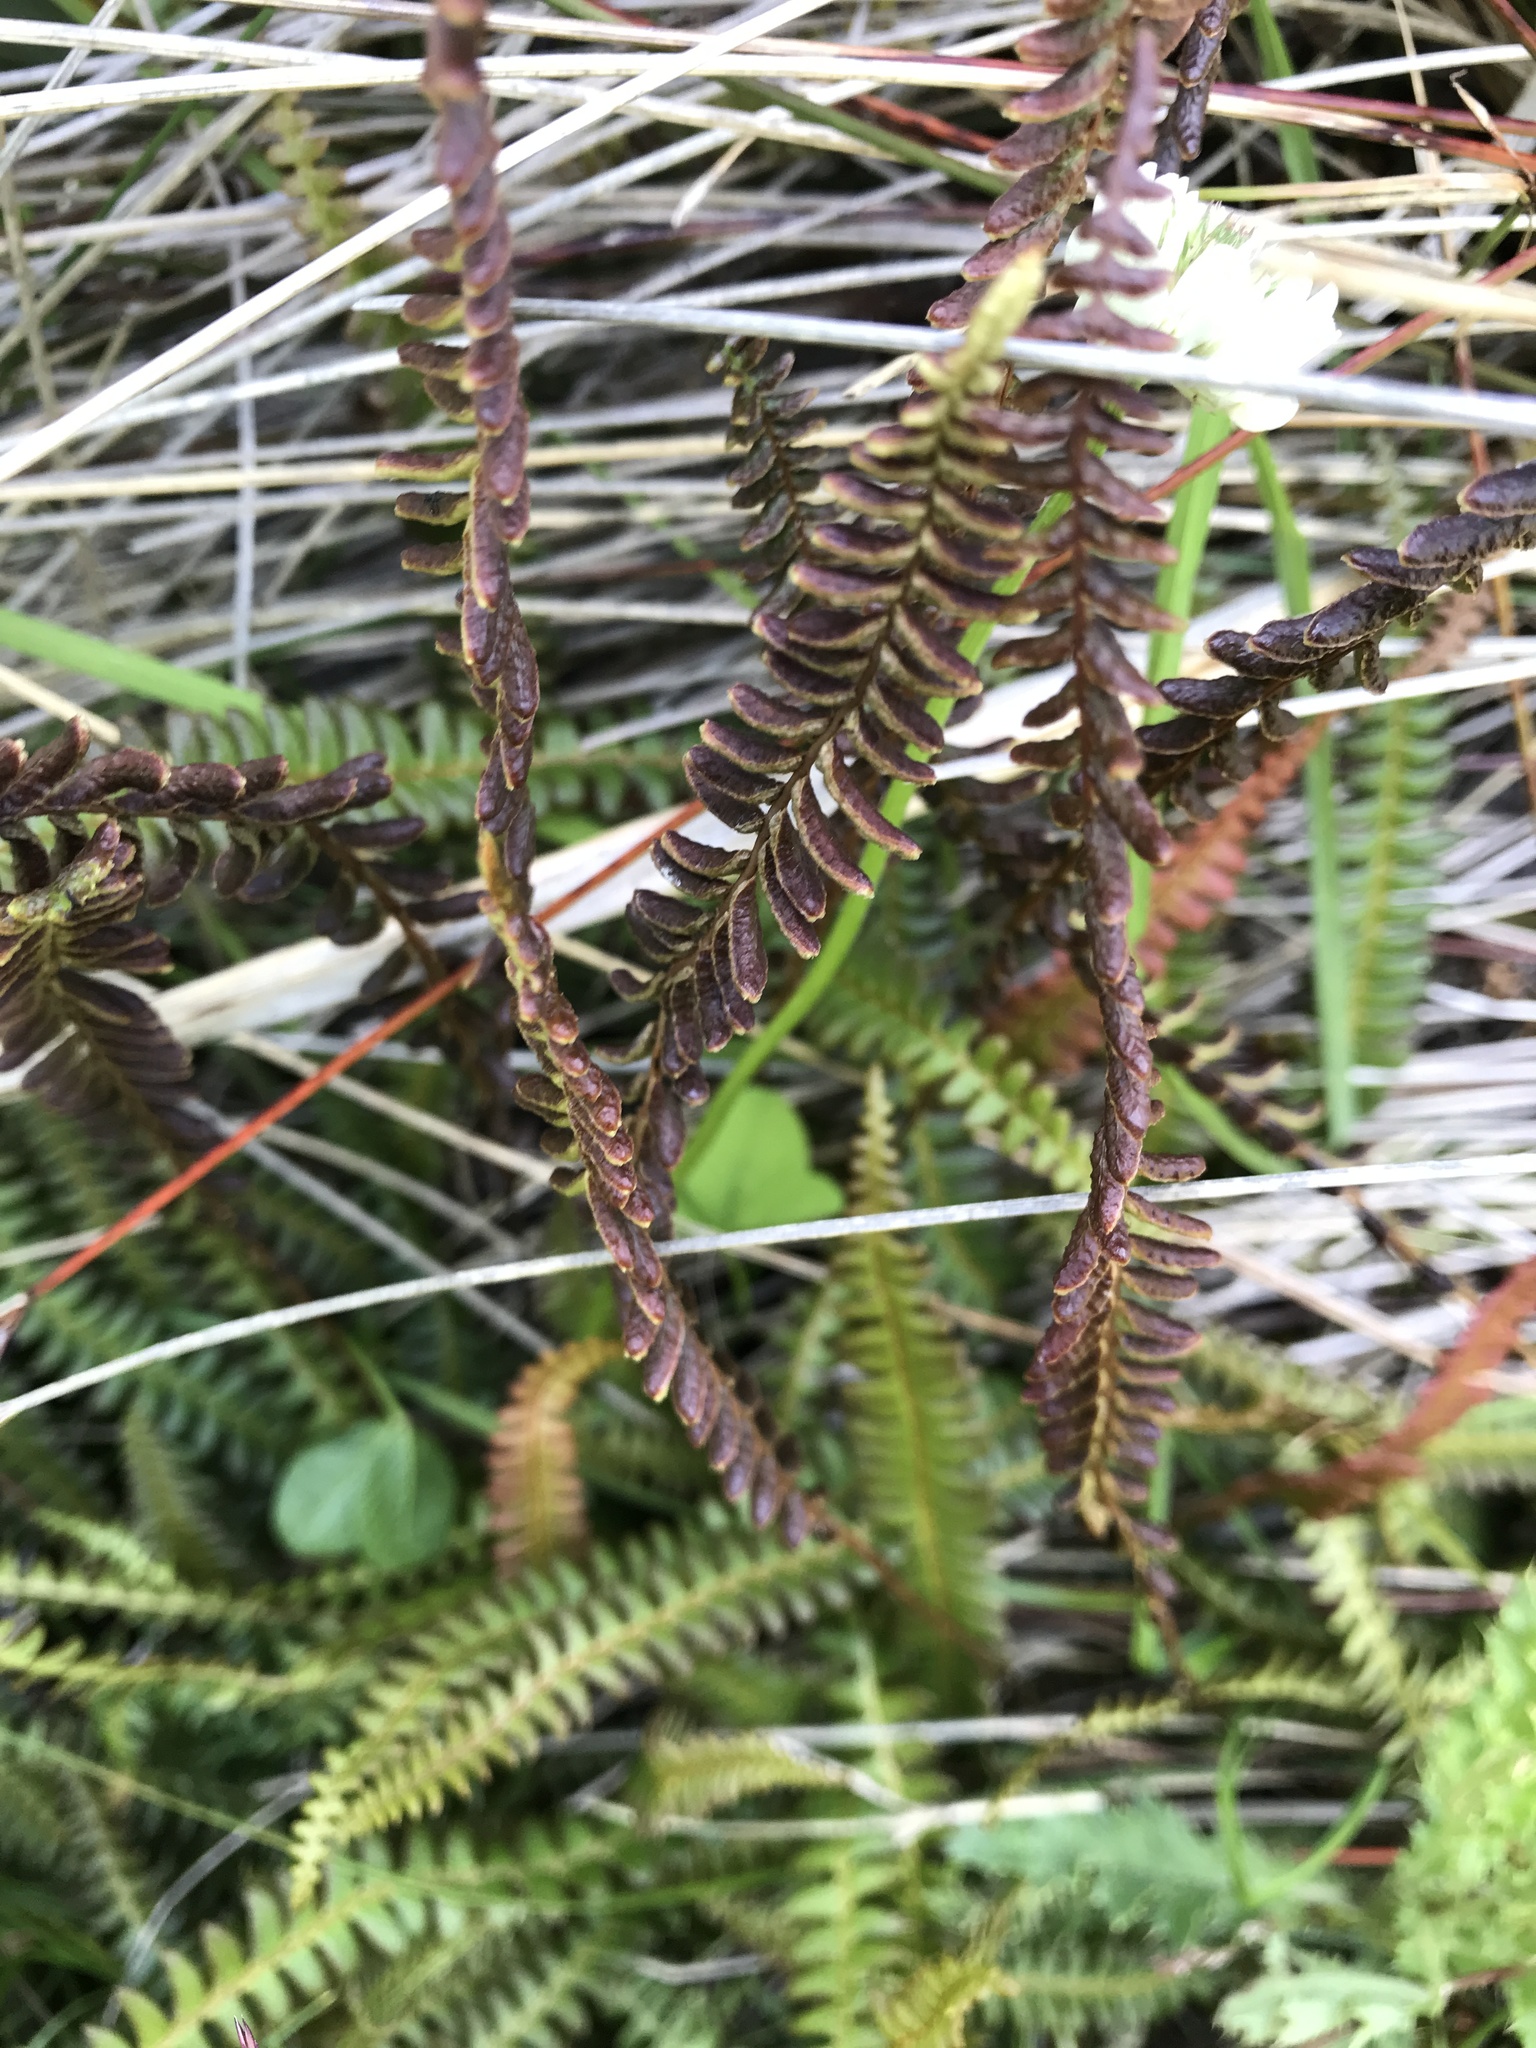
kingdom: Plantae
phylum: Tracheophyta
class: Polypodiopsida
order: Polypodiales
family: Blechnaceae
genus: Austroblechnum
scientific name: Austroblechnum penna-marina
